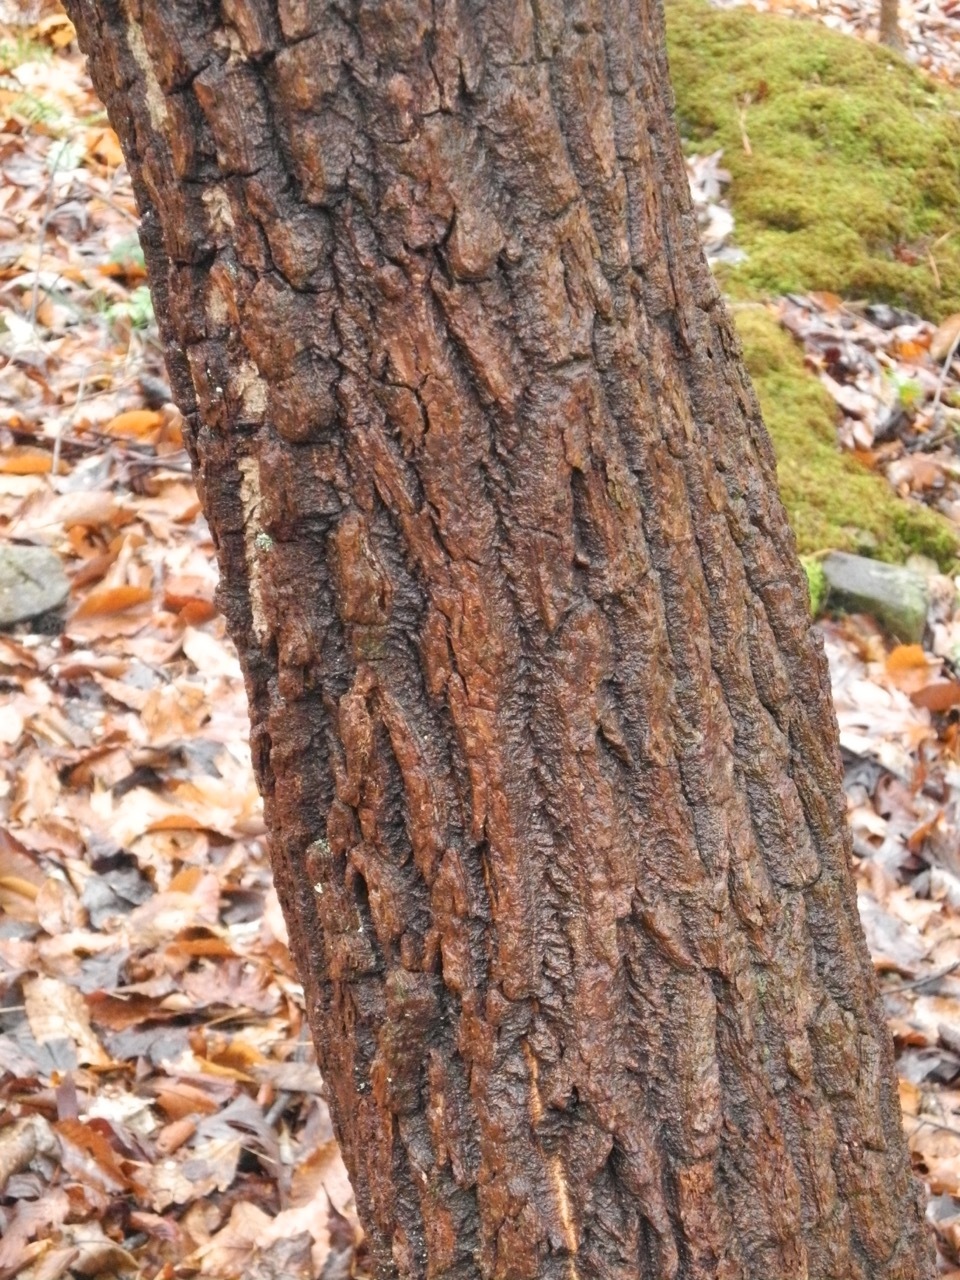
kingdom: Plantae
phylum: Tracheophyta
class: Magnoliopsida
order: Ericales
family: Ericaceae
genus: Oxydendrum
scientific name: Oxydendrum arboreum
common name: Sourwood
